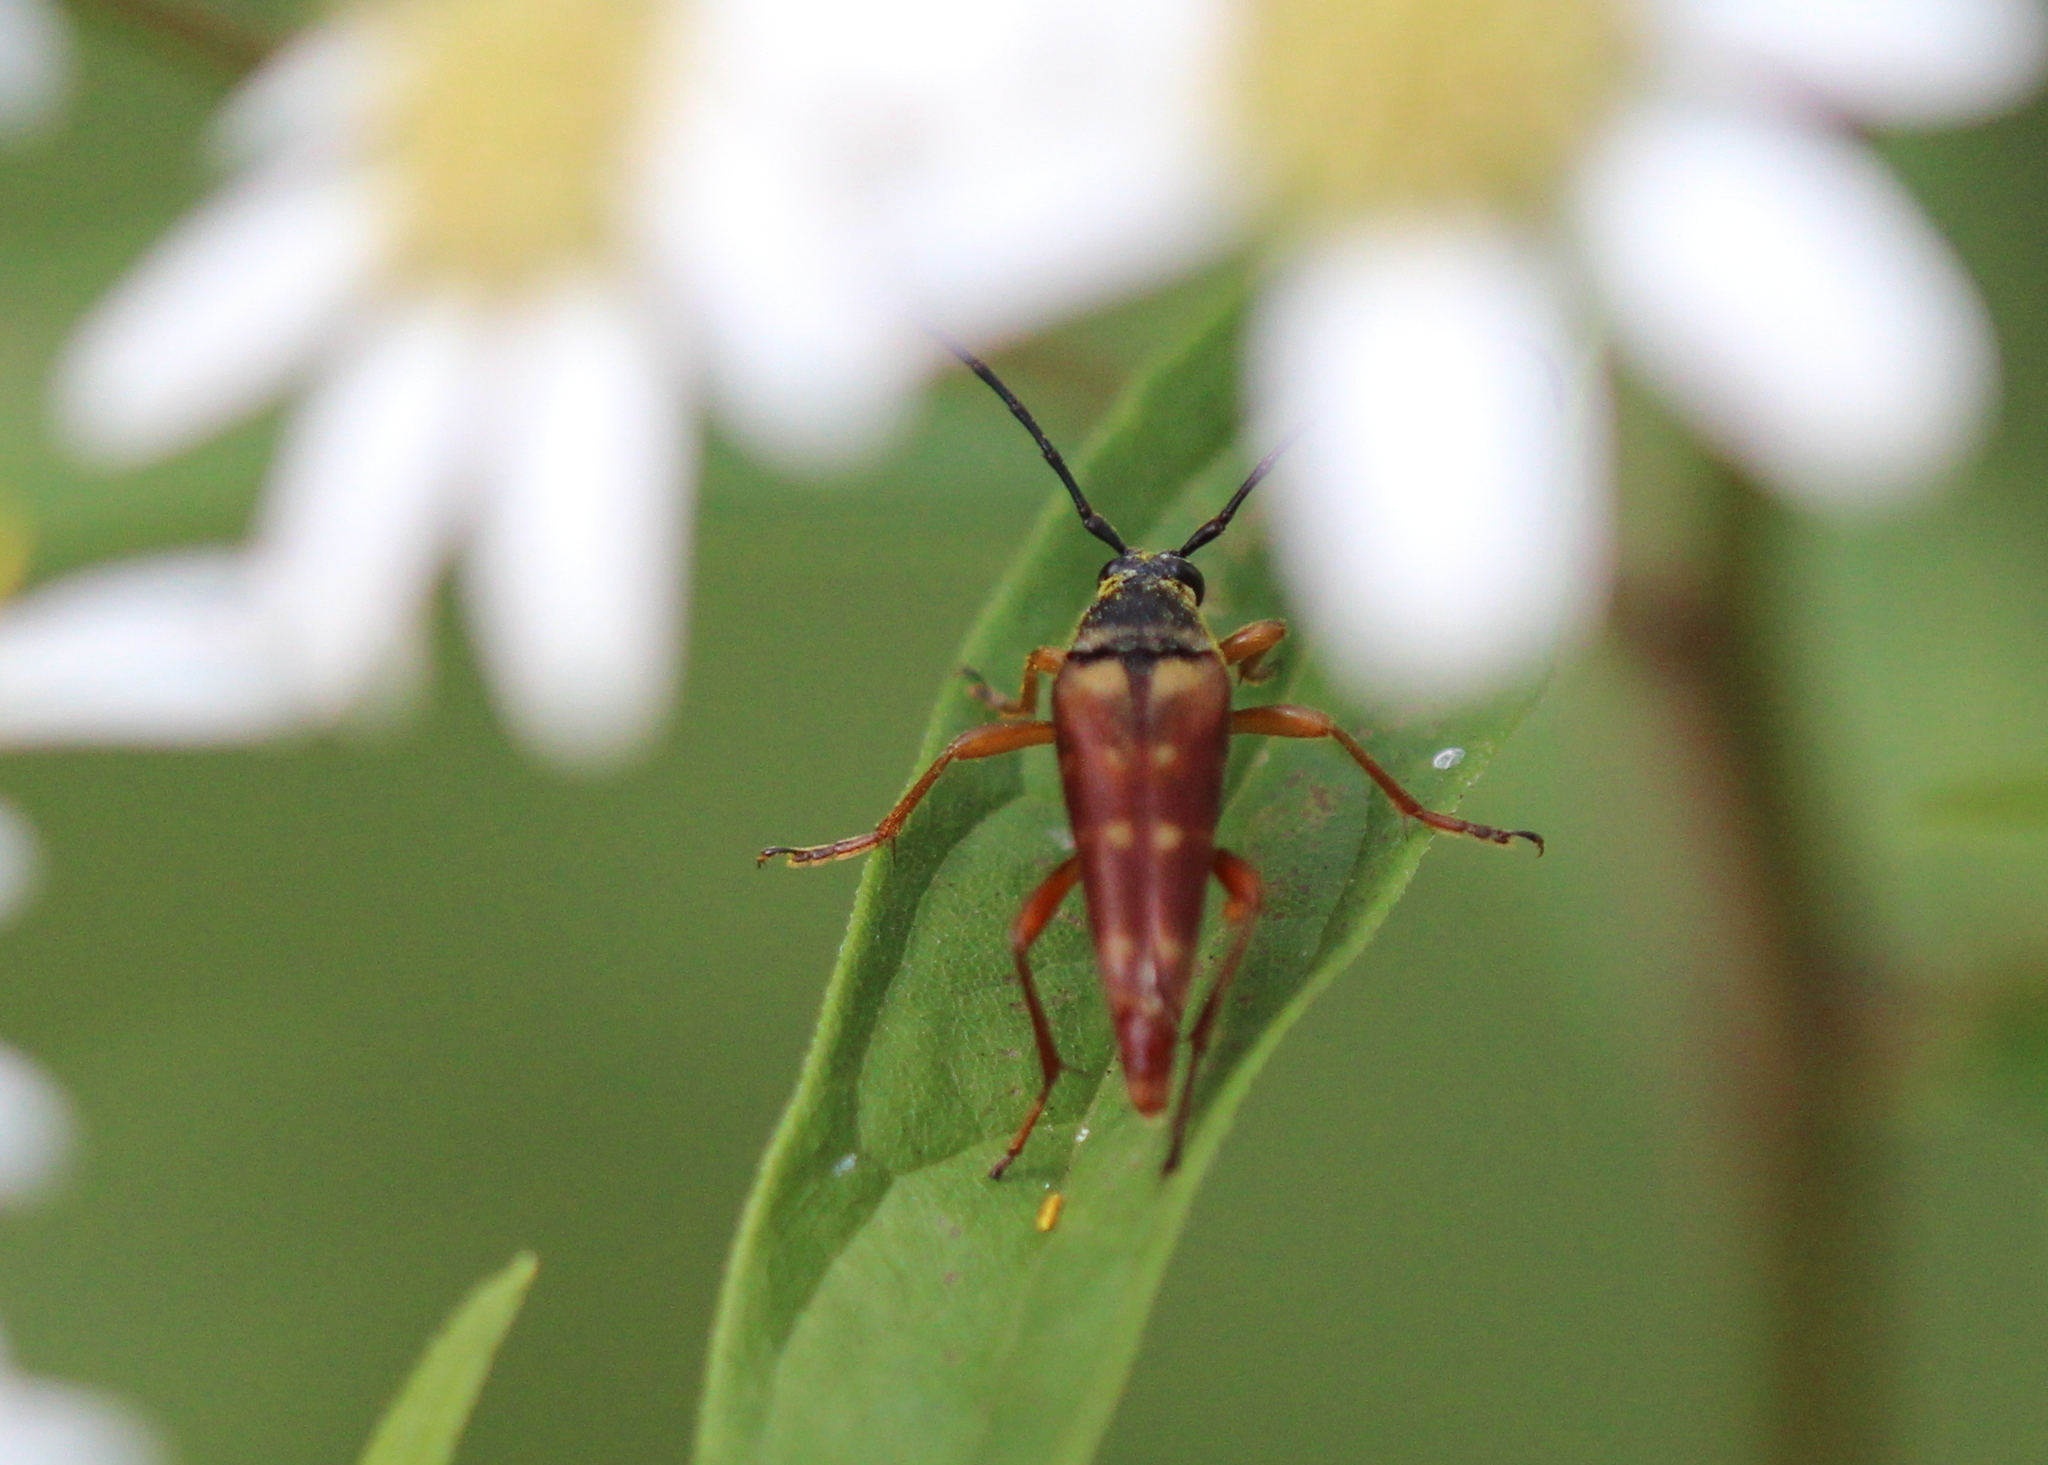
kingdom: Animalia
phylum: Arthropoda
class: Insecta
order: Coleoptera
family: Cerambycidae
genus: Typocerus
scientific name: Typocerus velutinus
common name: Banded longhorn beetle
